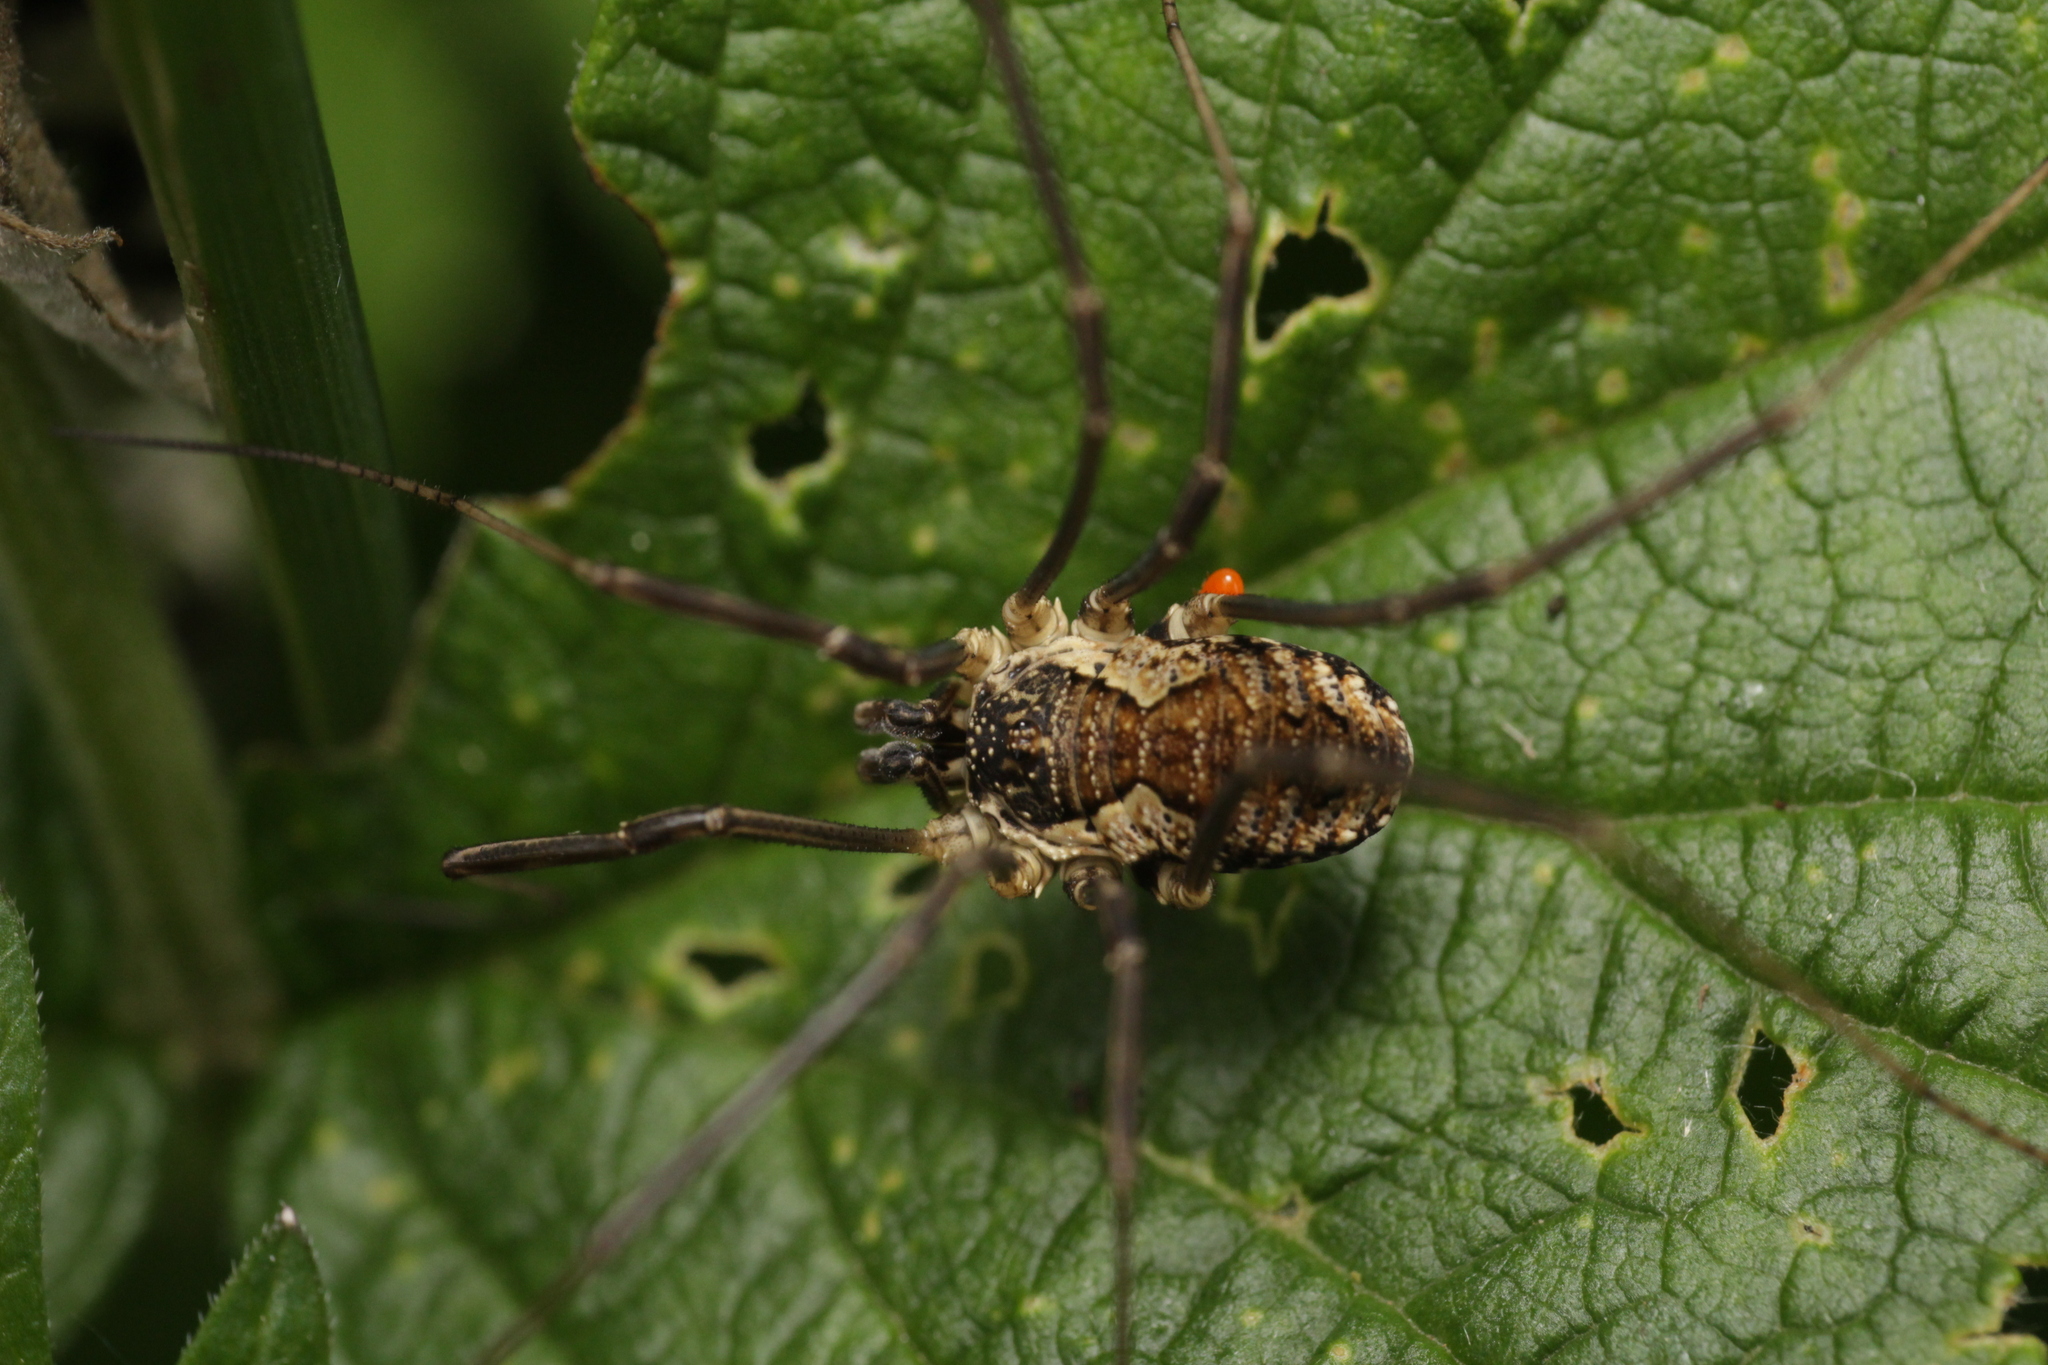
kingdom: Animalia
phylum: Arthropoda
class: Arachnida
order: Opiliones
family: Phalangiidae
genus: Mitopus
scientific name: Mitopus morio
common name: Saddleback harvestman
